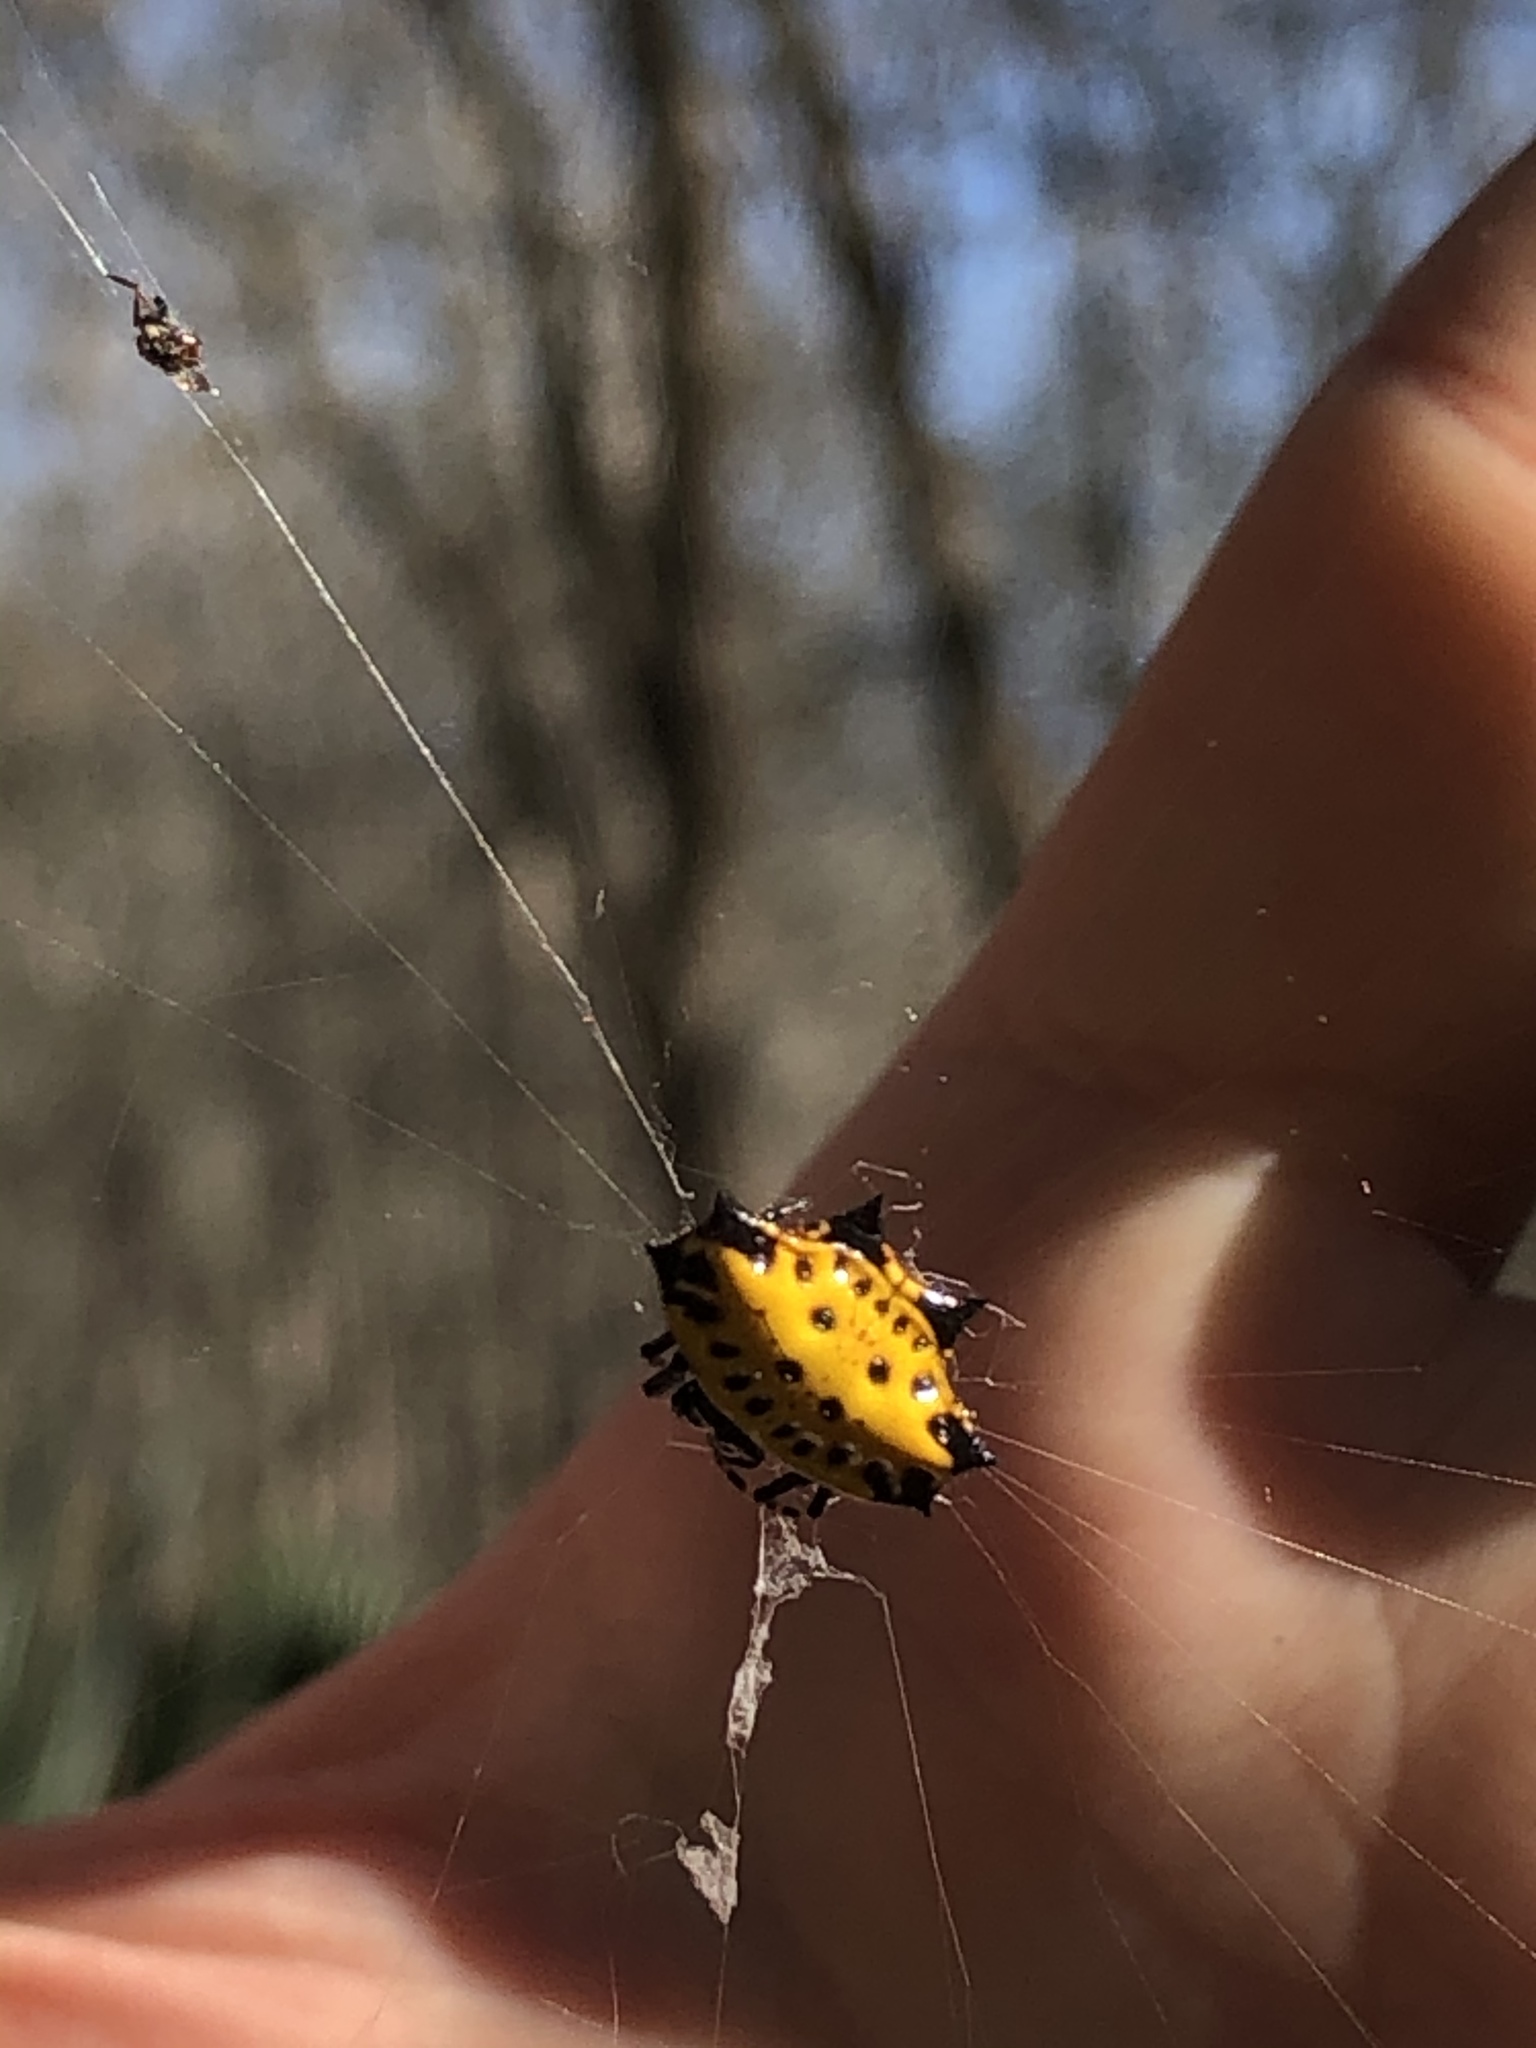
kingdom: Animalia
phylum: Arthropoda
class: Arachnida
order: Araneae
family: Araneidae
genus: Gasteracantha
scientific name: Gasteracantha cancriformis
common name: Orb weavers
